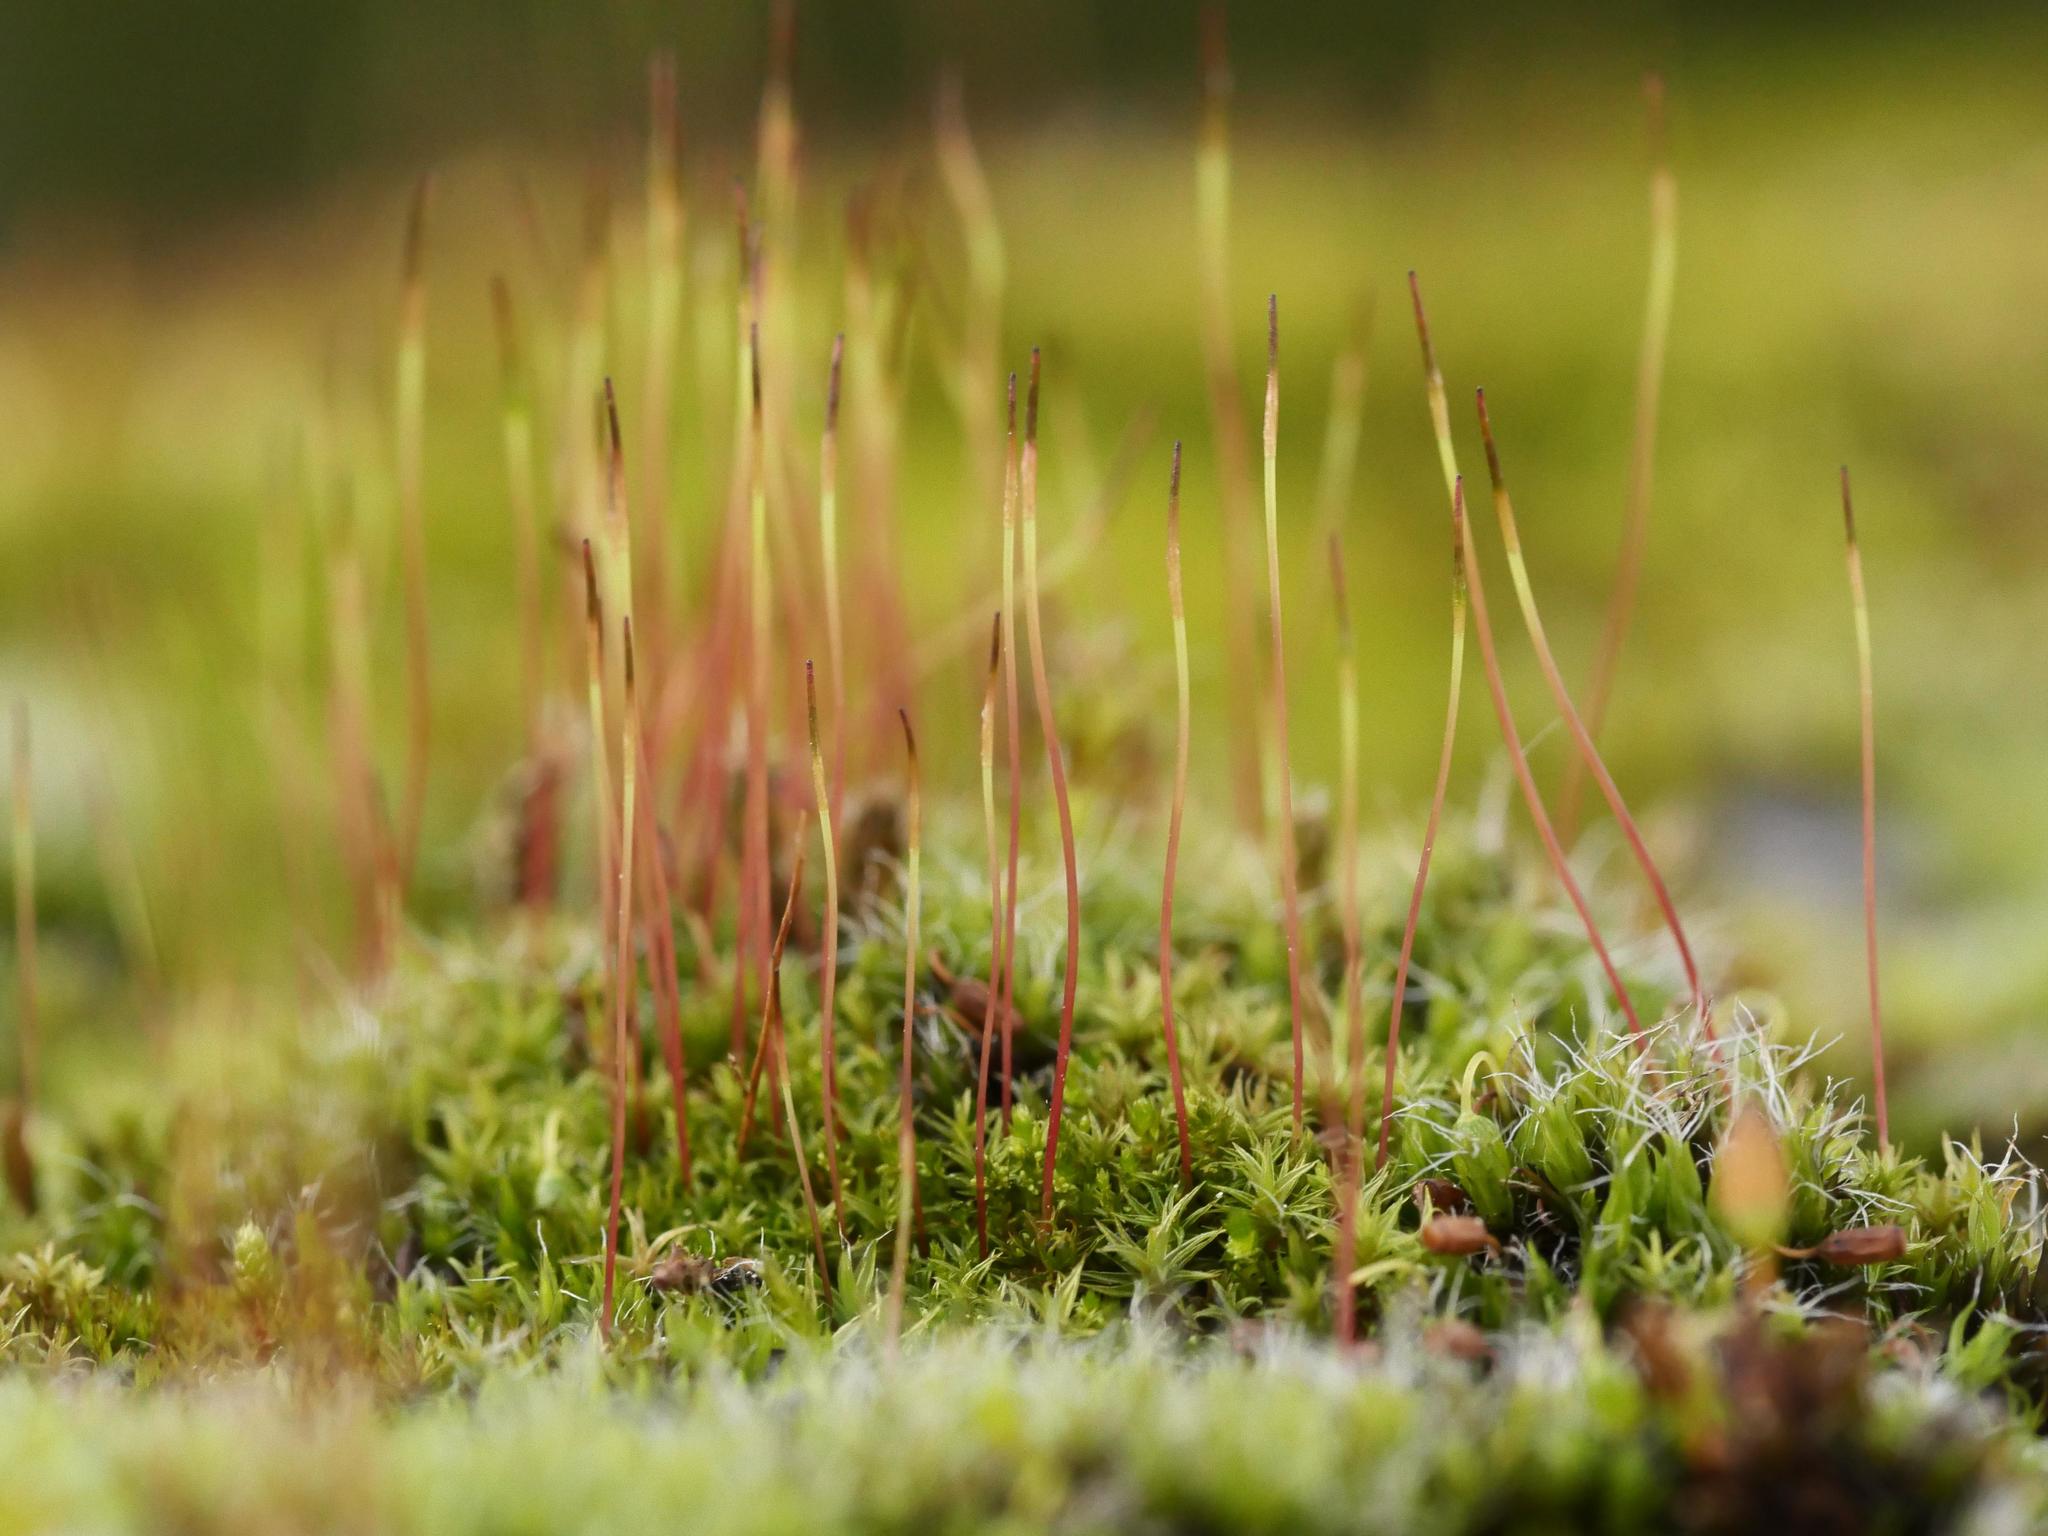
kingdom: Plantae
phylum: Bryophyta
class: Bryopsida
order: Dicranales
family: Ditrichaceae
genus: Ceratodon
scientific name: Ceratodon purpureus
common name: Redshank
